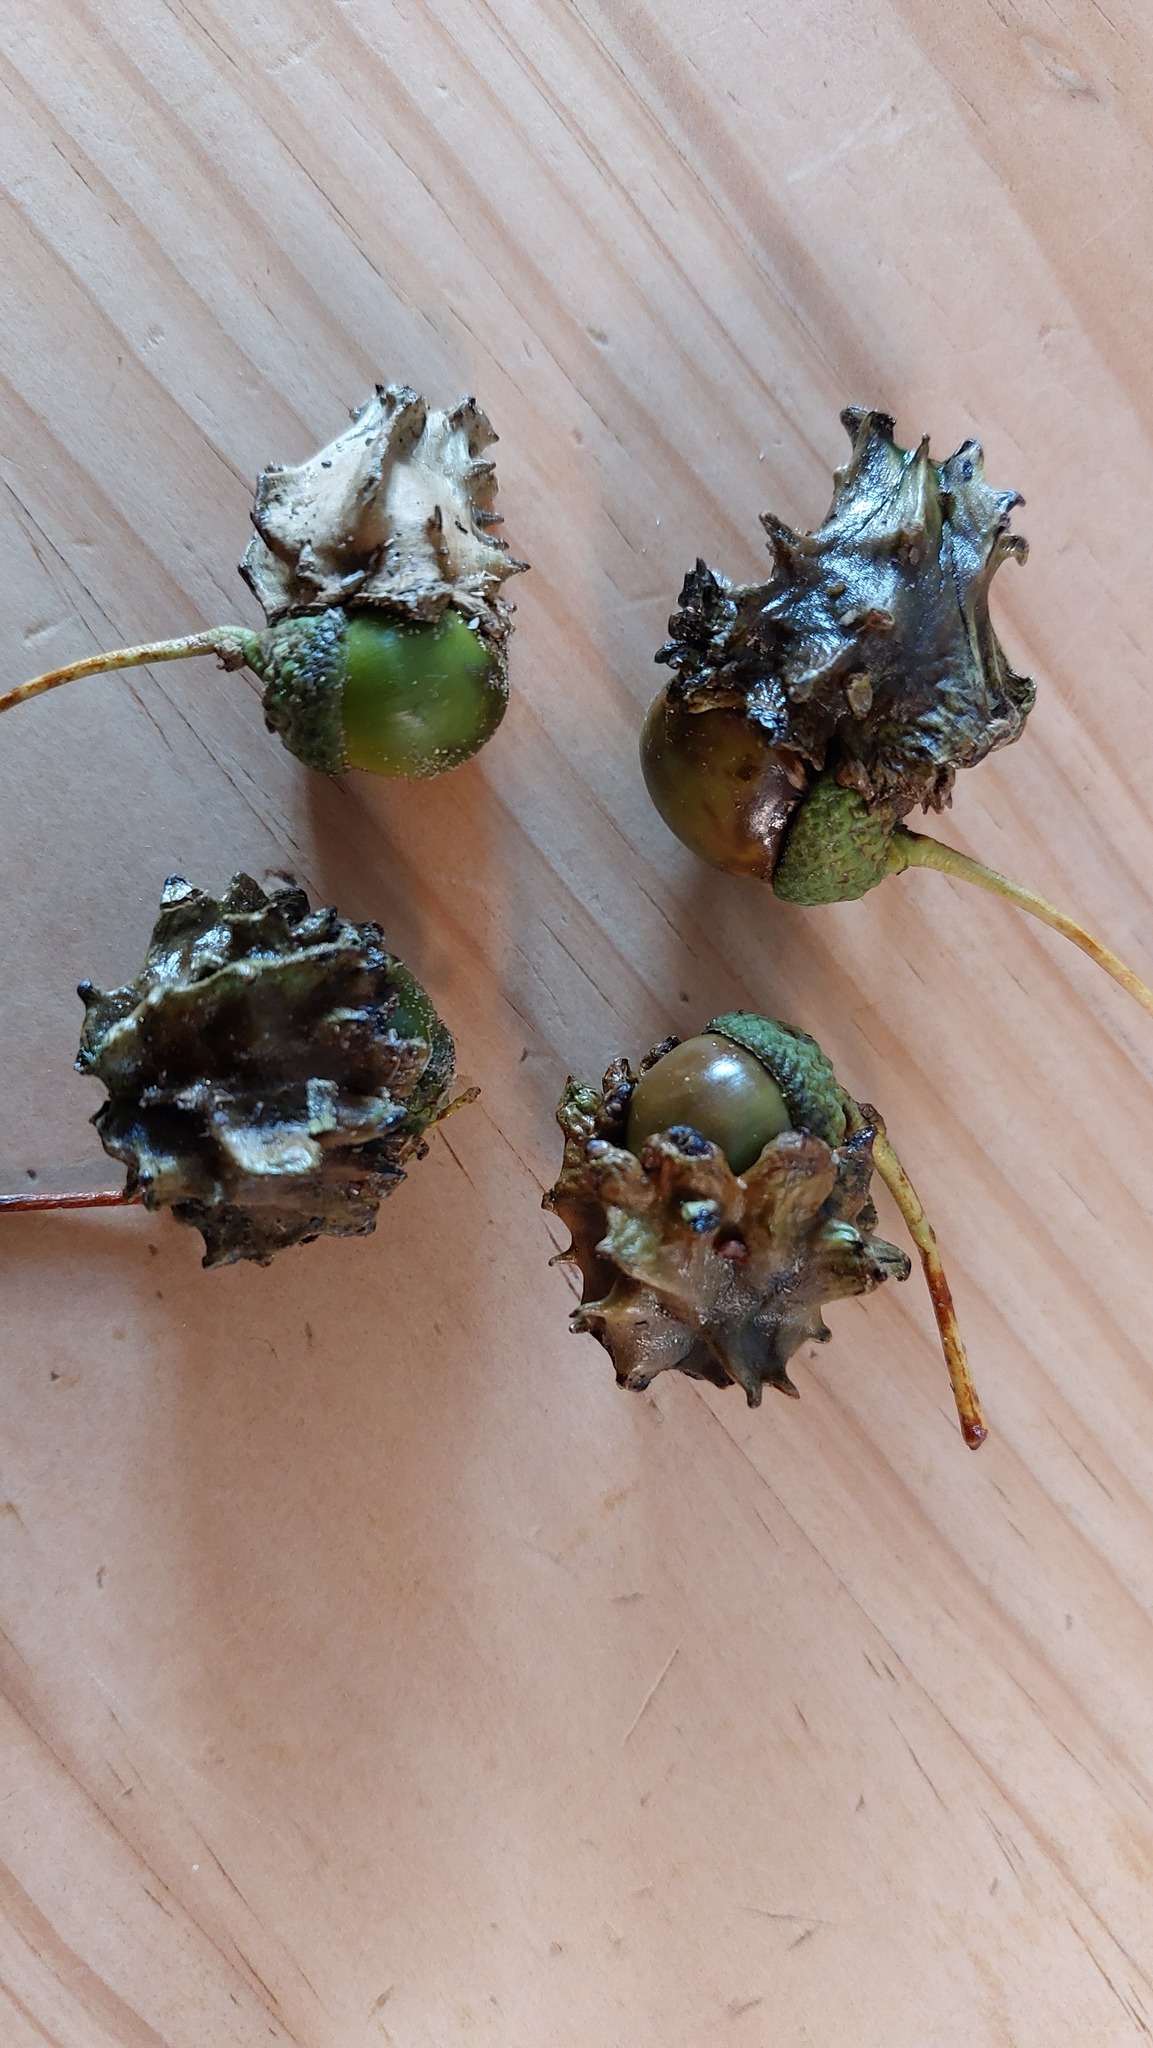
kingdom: Animalia
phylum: Arthropoda
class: Insecta
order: Hymenoptera
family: Cynipidae
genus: Andricus
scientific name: Andricus quercuscalicis
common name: Knopper gall
